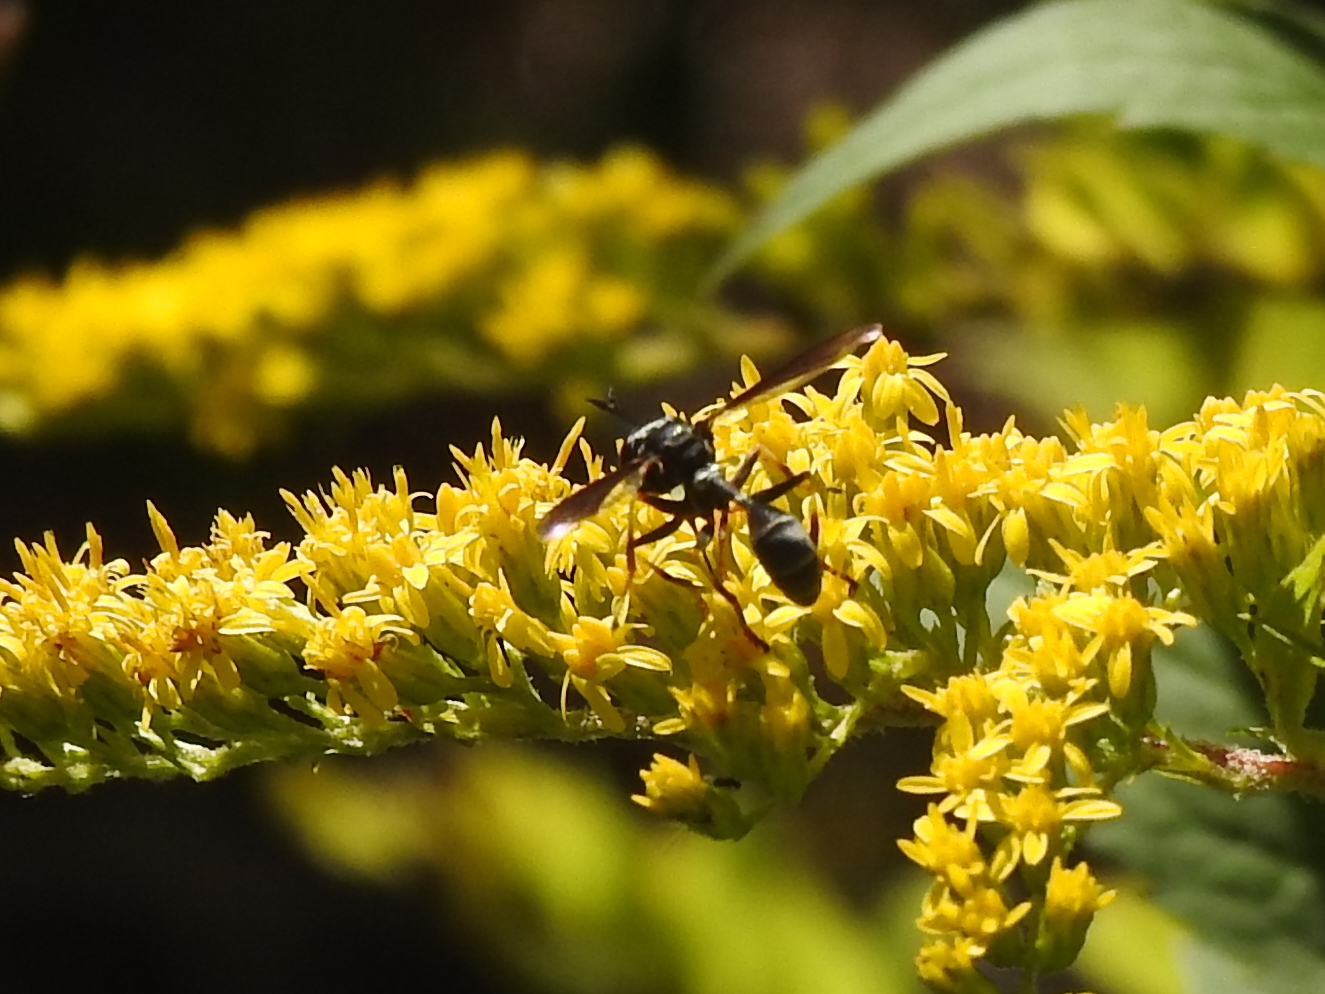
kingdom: Animalia
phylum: Arthropoda
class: Insecta
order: Diptera
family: Conopidae
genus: Physocephala
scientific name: Physocephala tibialis
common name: Common eastern physocephala
